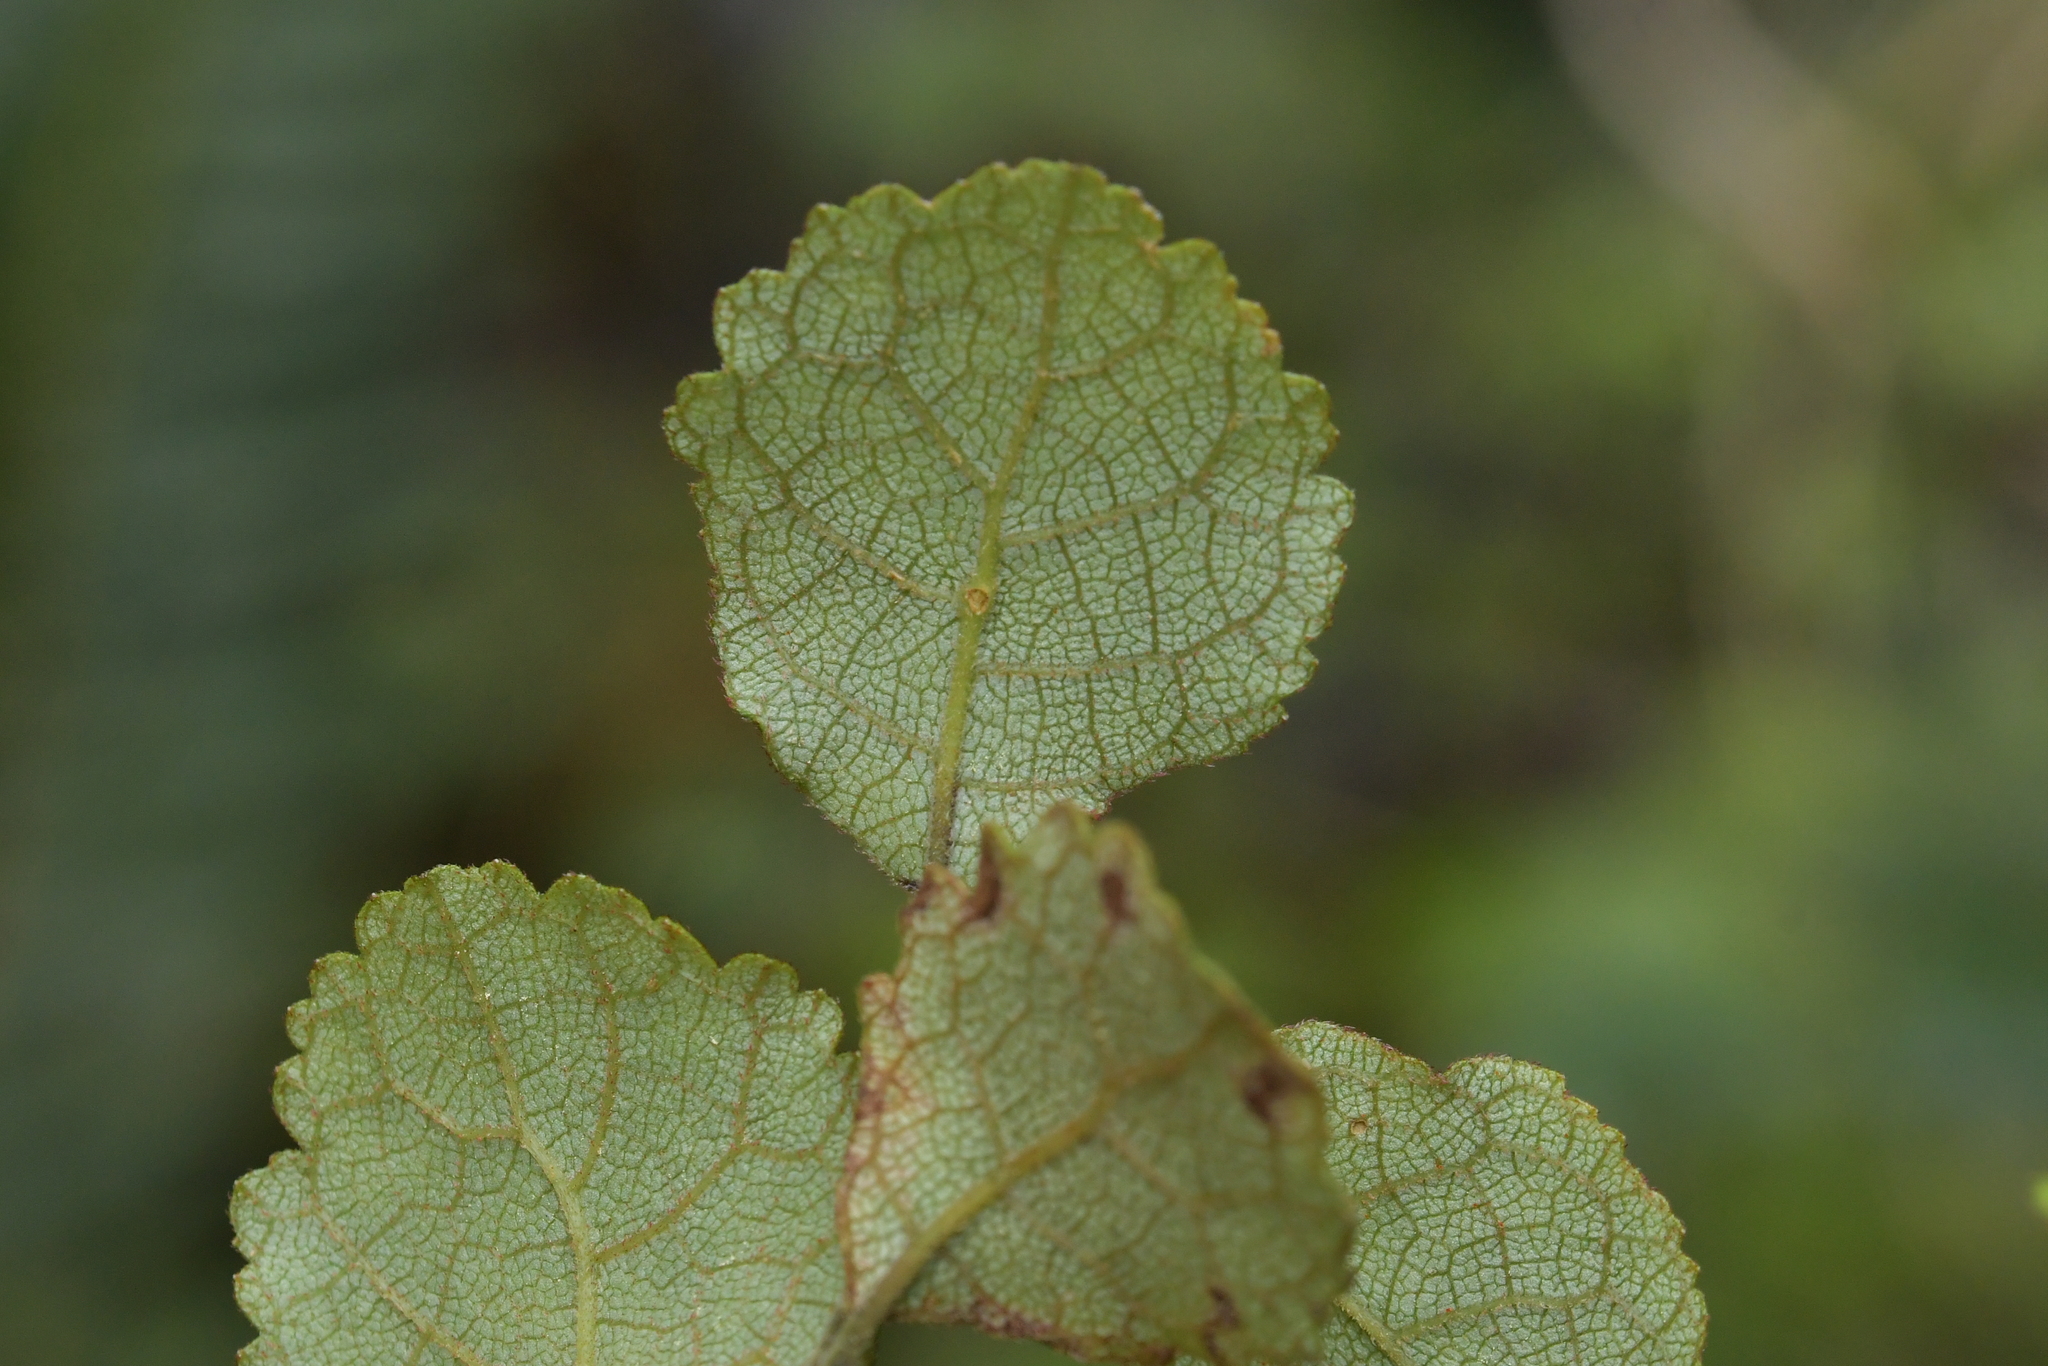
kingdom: Plantae
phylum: Tracheophyta
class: Magnoliopsida
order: Lamiales
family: Gesneriaceae
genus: Rhabdothamnus
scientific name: Rhabdothamnus solandri
